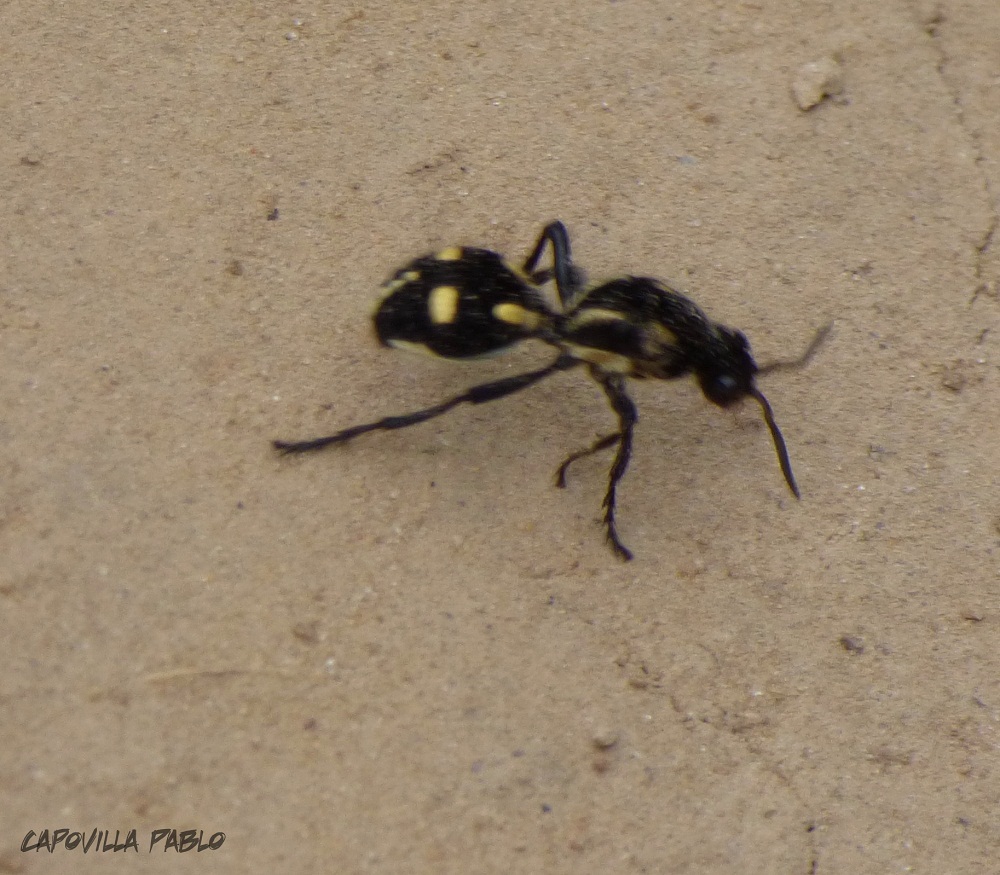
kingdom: Animalia
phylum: Arthropoda
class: Insecta
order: Hymenoptera
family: Mutillidae
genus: Traumatomutilla
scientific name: Traumatomutilla
